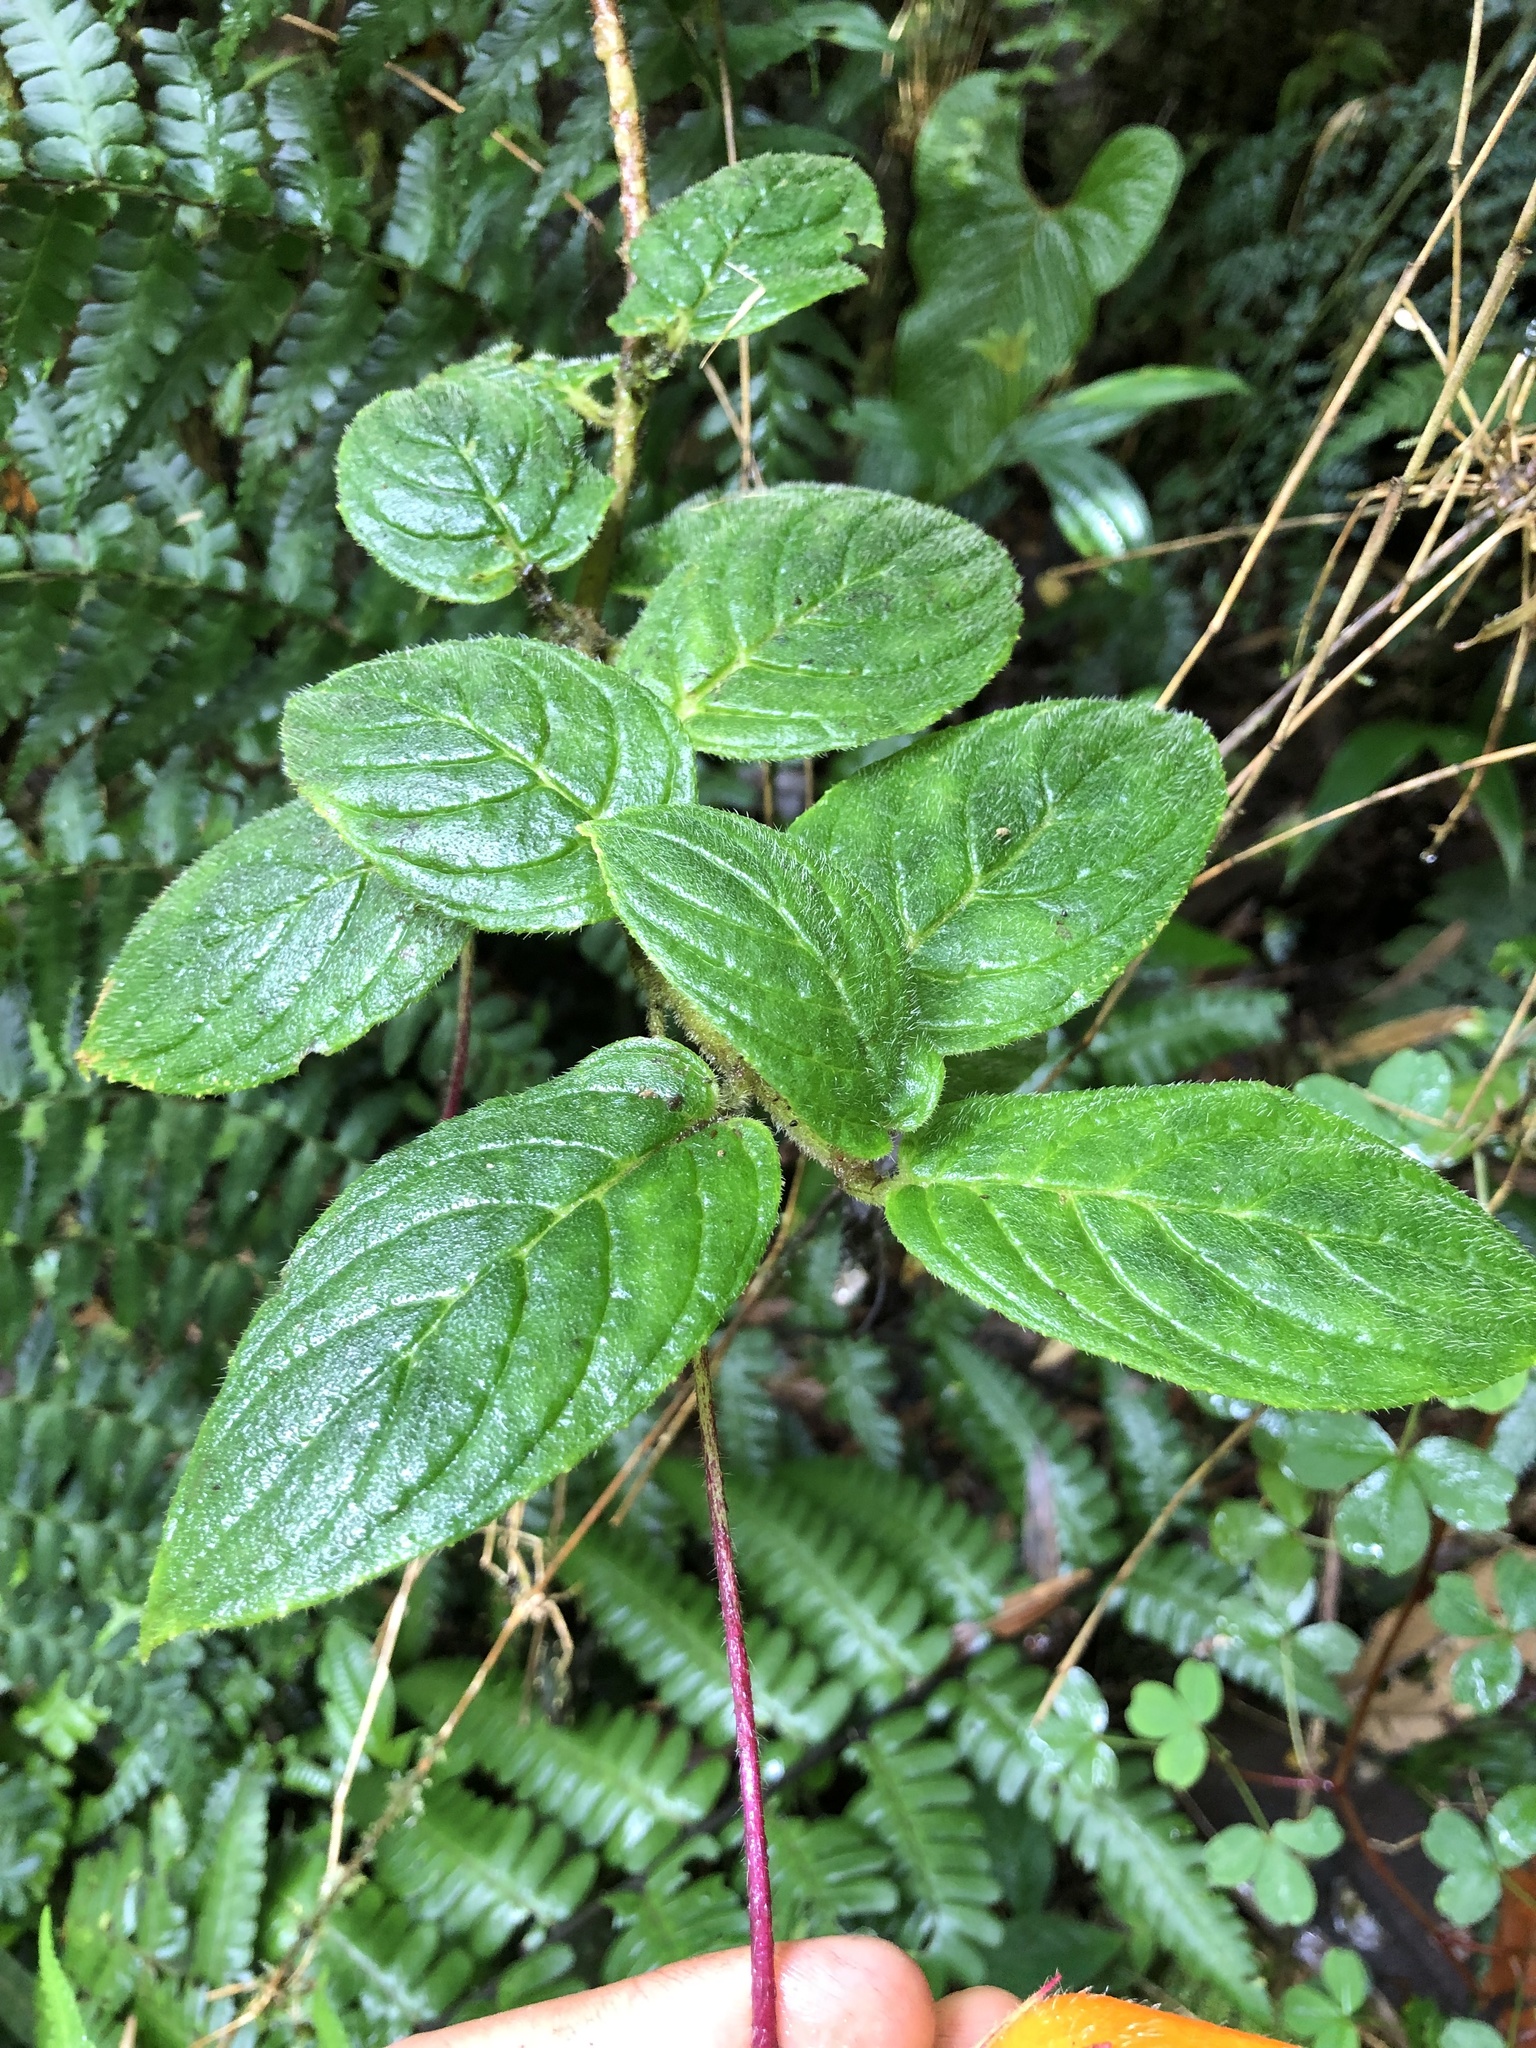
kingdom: Plantae
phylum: Tracheophyta
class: Magnoliopsida
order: Lamiales
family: Gesneriaceae
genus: Columnea
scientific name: Columnea strigosa
